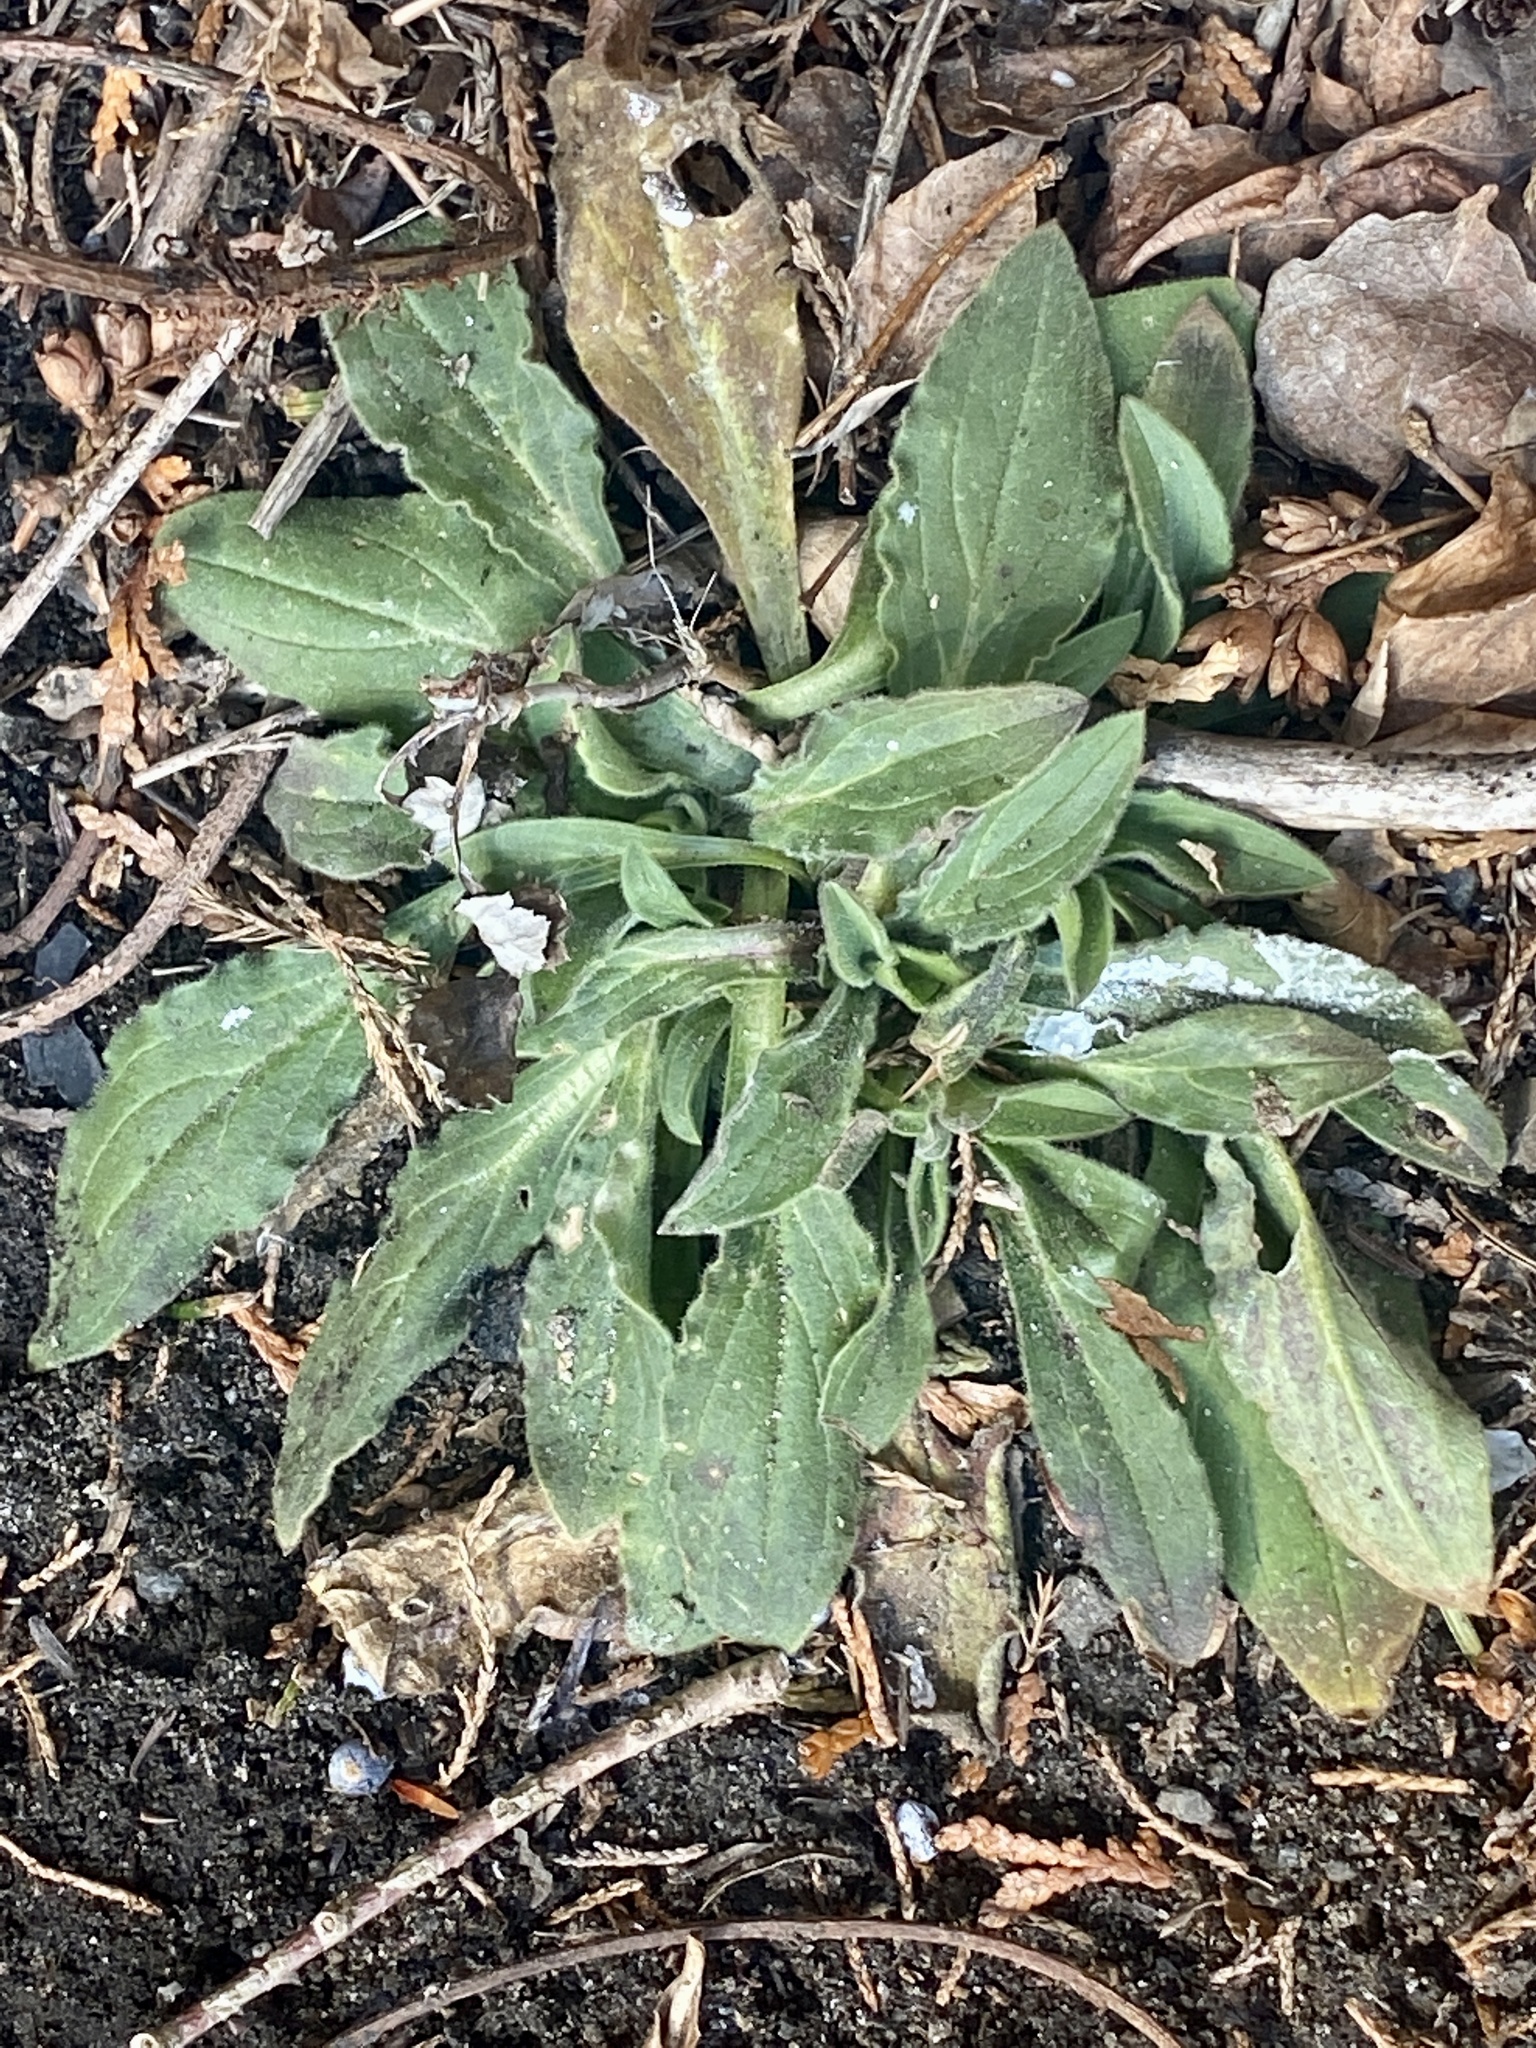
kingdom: Plantae
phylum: Tracheophyta
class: Magnoliopsida
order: Caryophyllales
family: Caryophyllaceae
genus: Silene
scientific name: Silene latifolia
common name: White campion
